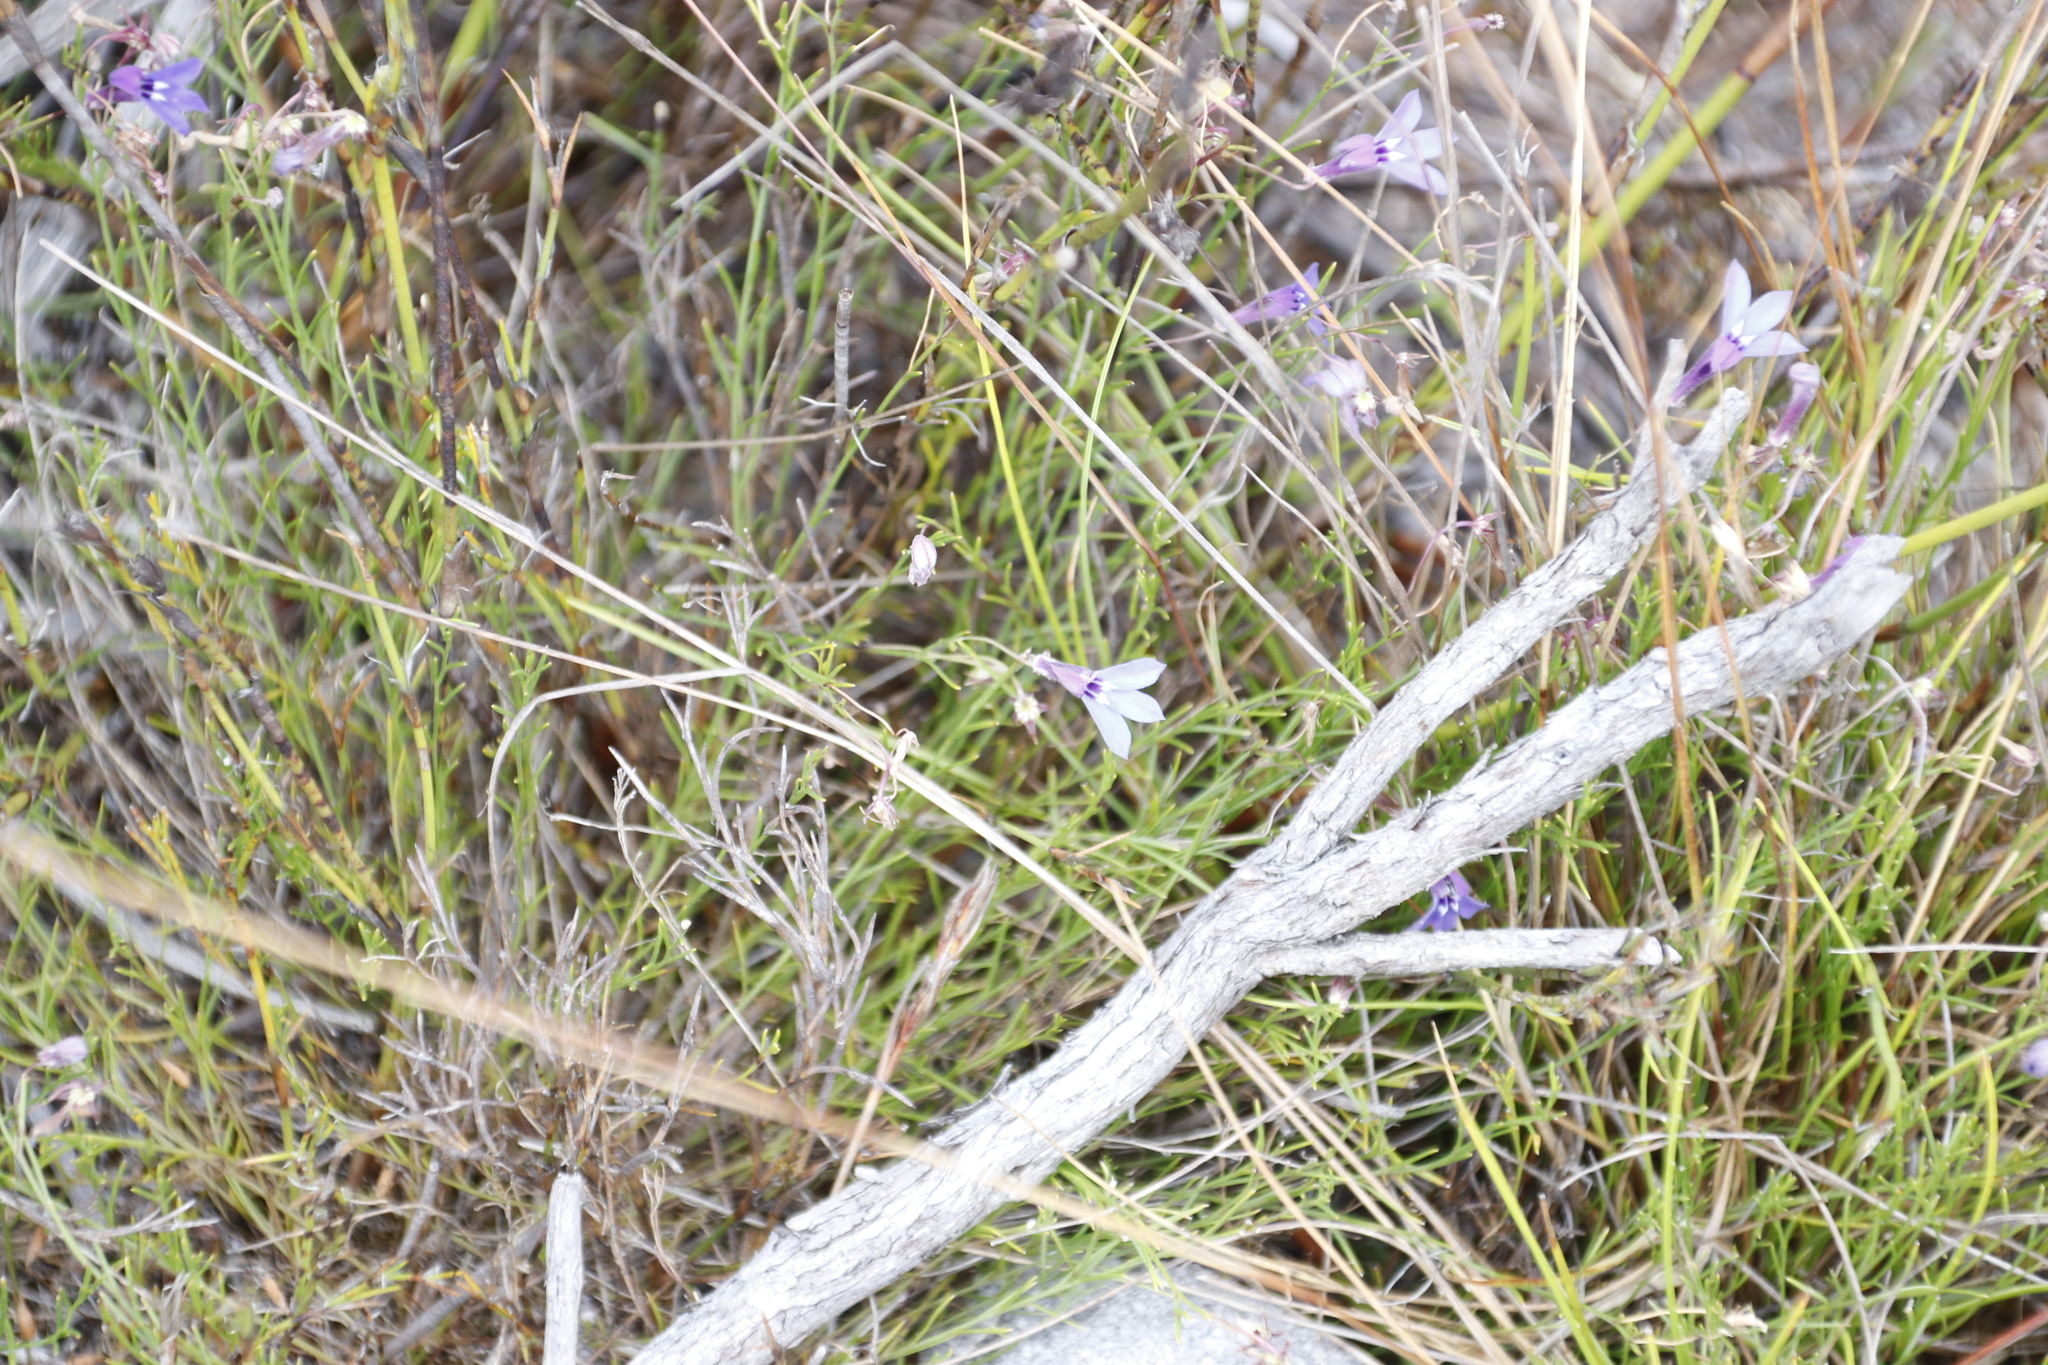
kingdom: Plantae
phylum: Tracheophyta
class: Magnoliopsida
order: Asterales
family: Campanulaceae
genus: Lobelia
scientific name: Lobelia setacea
